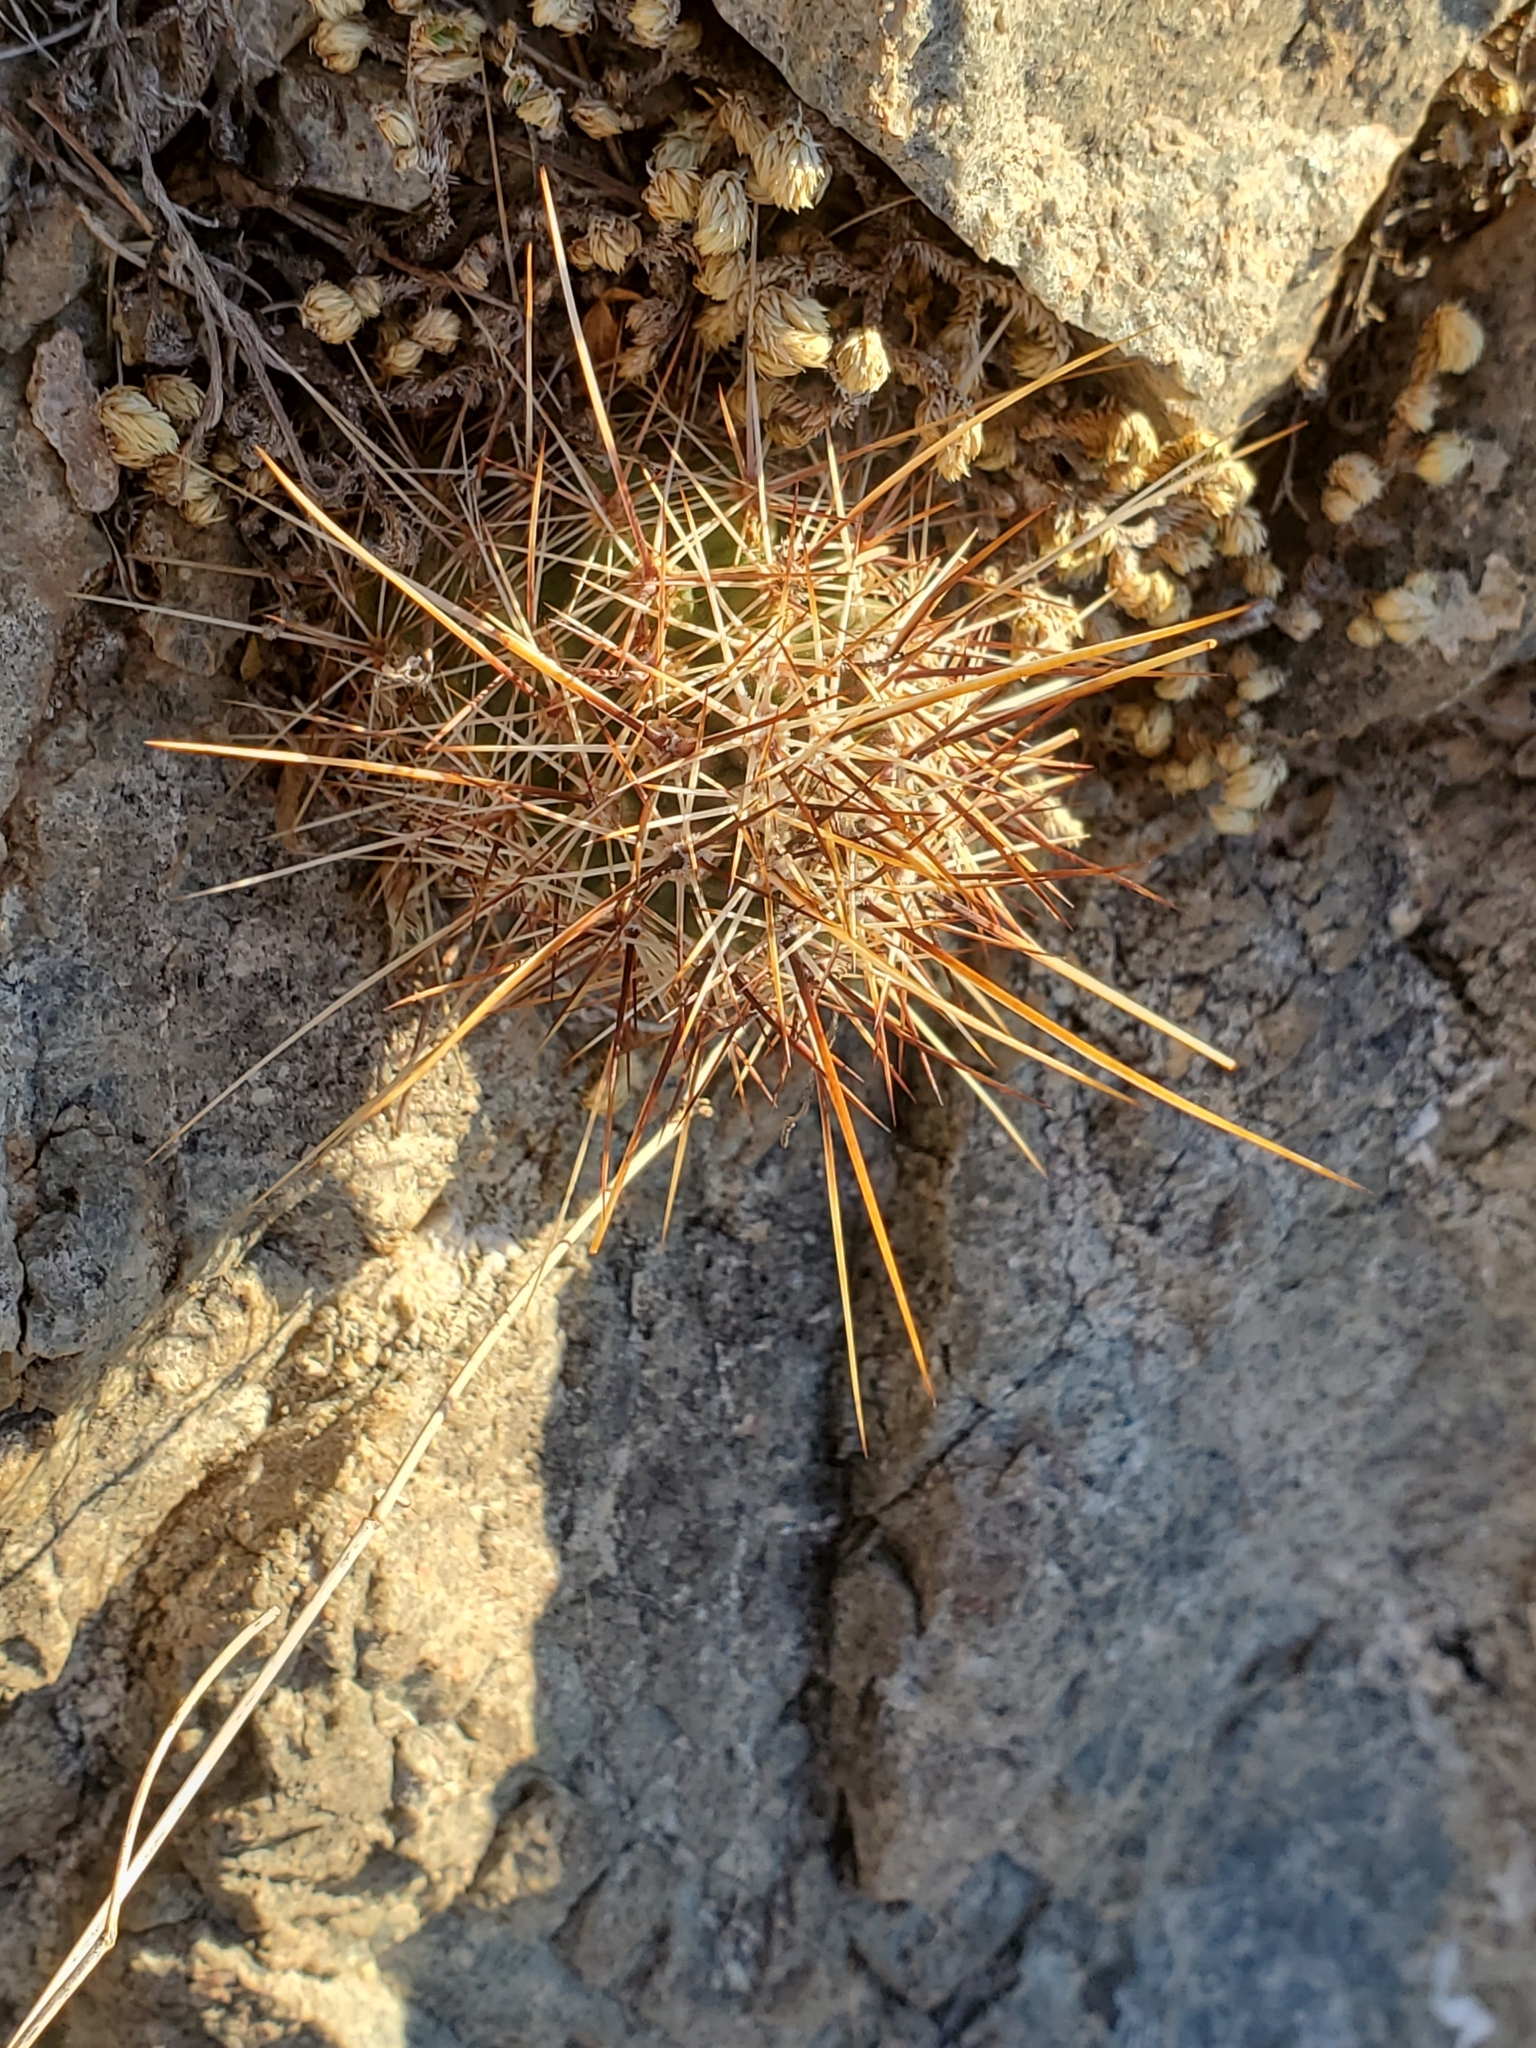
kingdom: Plantae
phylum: Tracheophyta
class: Magnoliopsida
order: Caryophyllales
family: Cactaceae
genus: Echinocereus
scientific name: Echinocereus engelmannii
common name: Engelmann's hedgehog cactus
